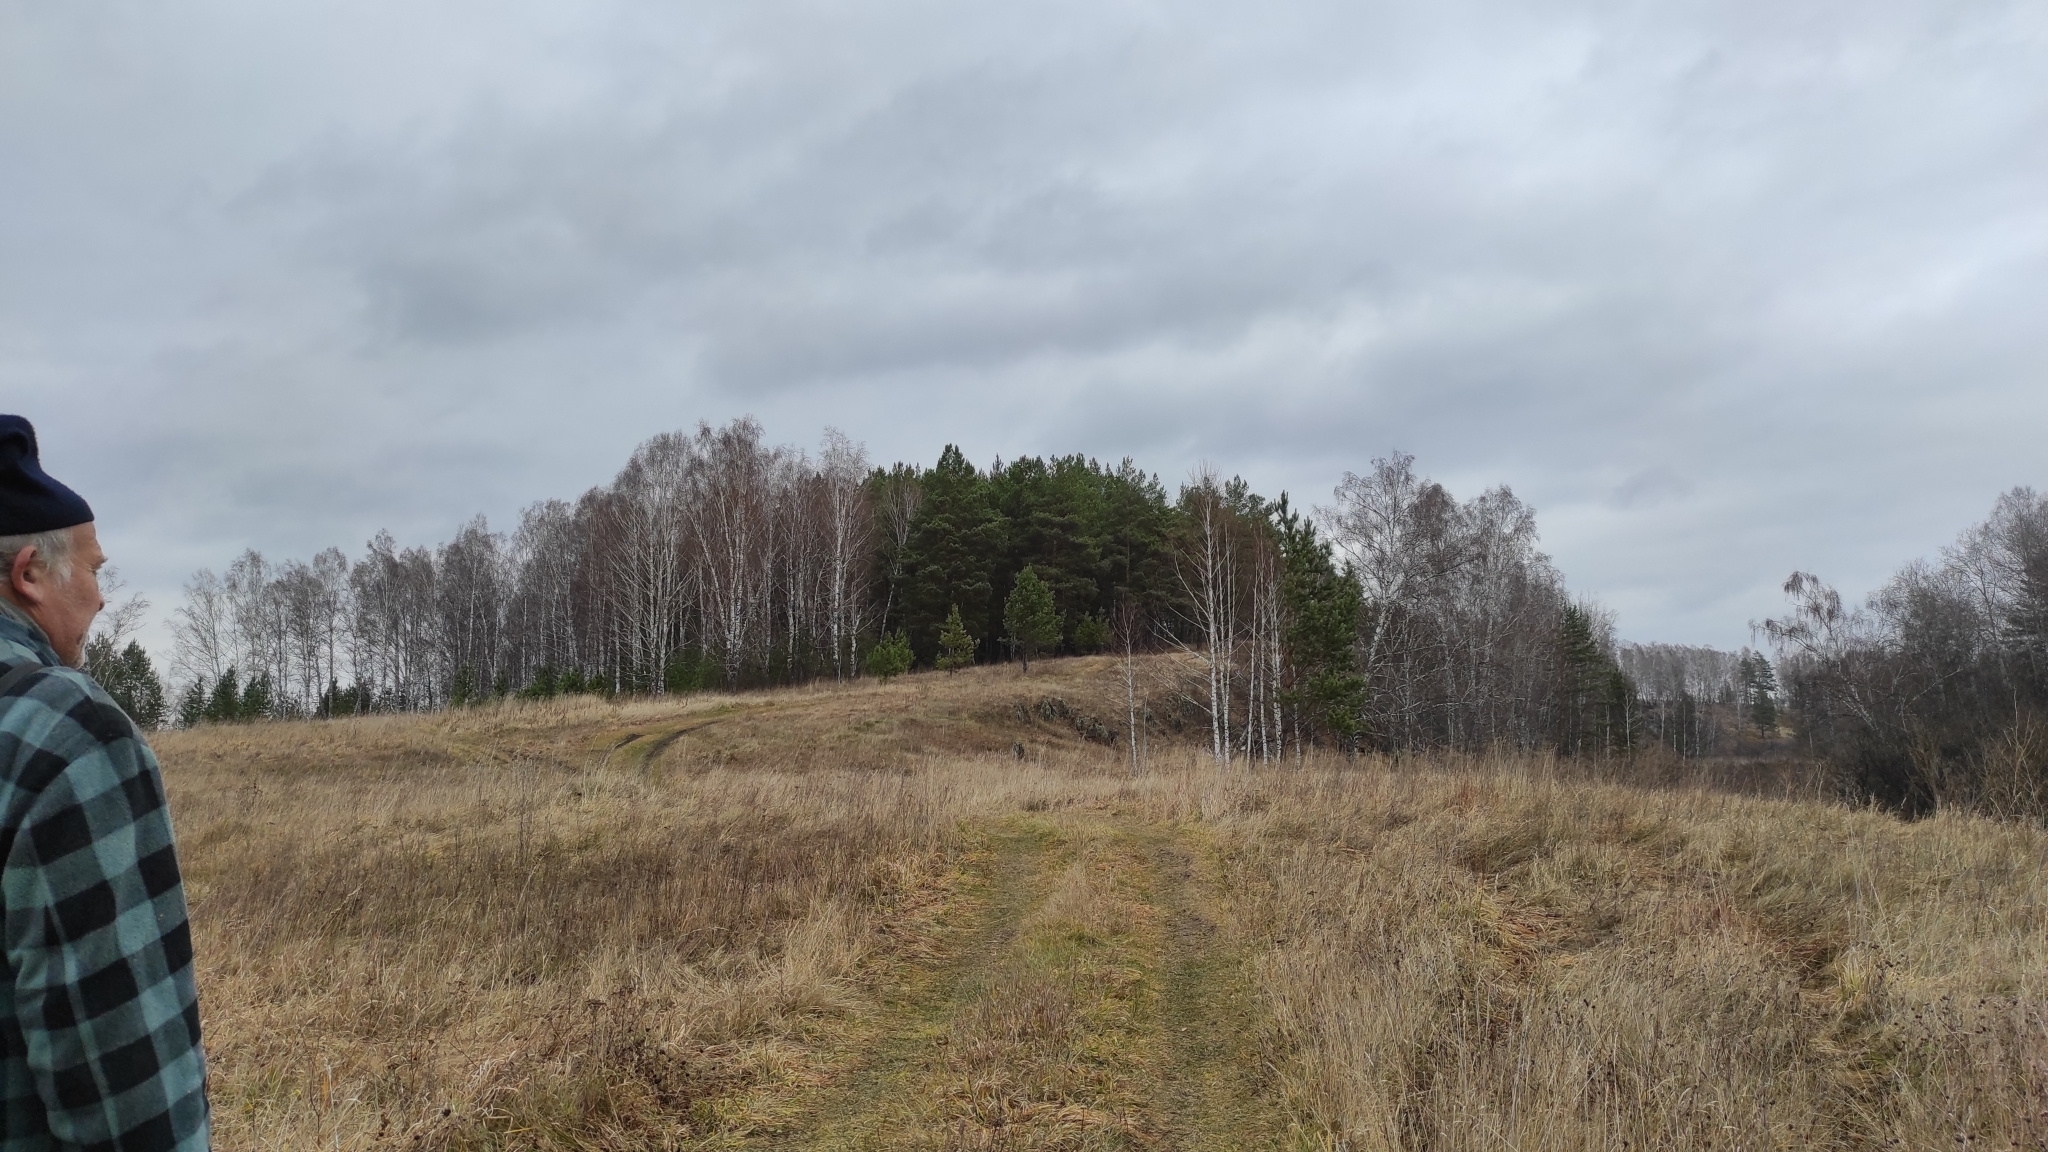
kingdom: Plantae
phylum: Tracheophyta
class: Pinopsida
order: Pinales
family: Pinaceae
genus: Pinus
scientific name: Pinus sylvestris
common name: Scots pine
